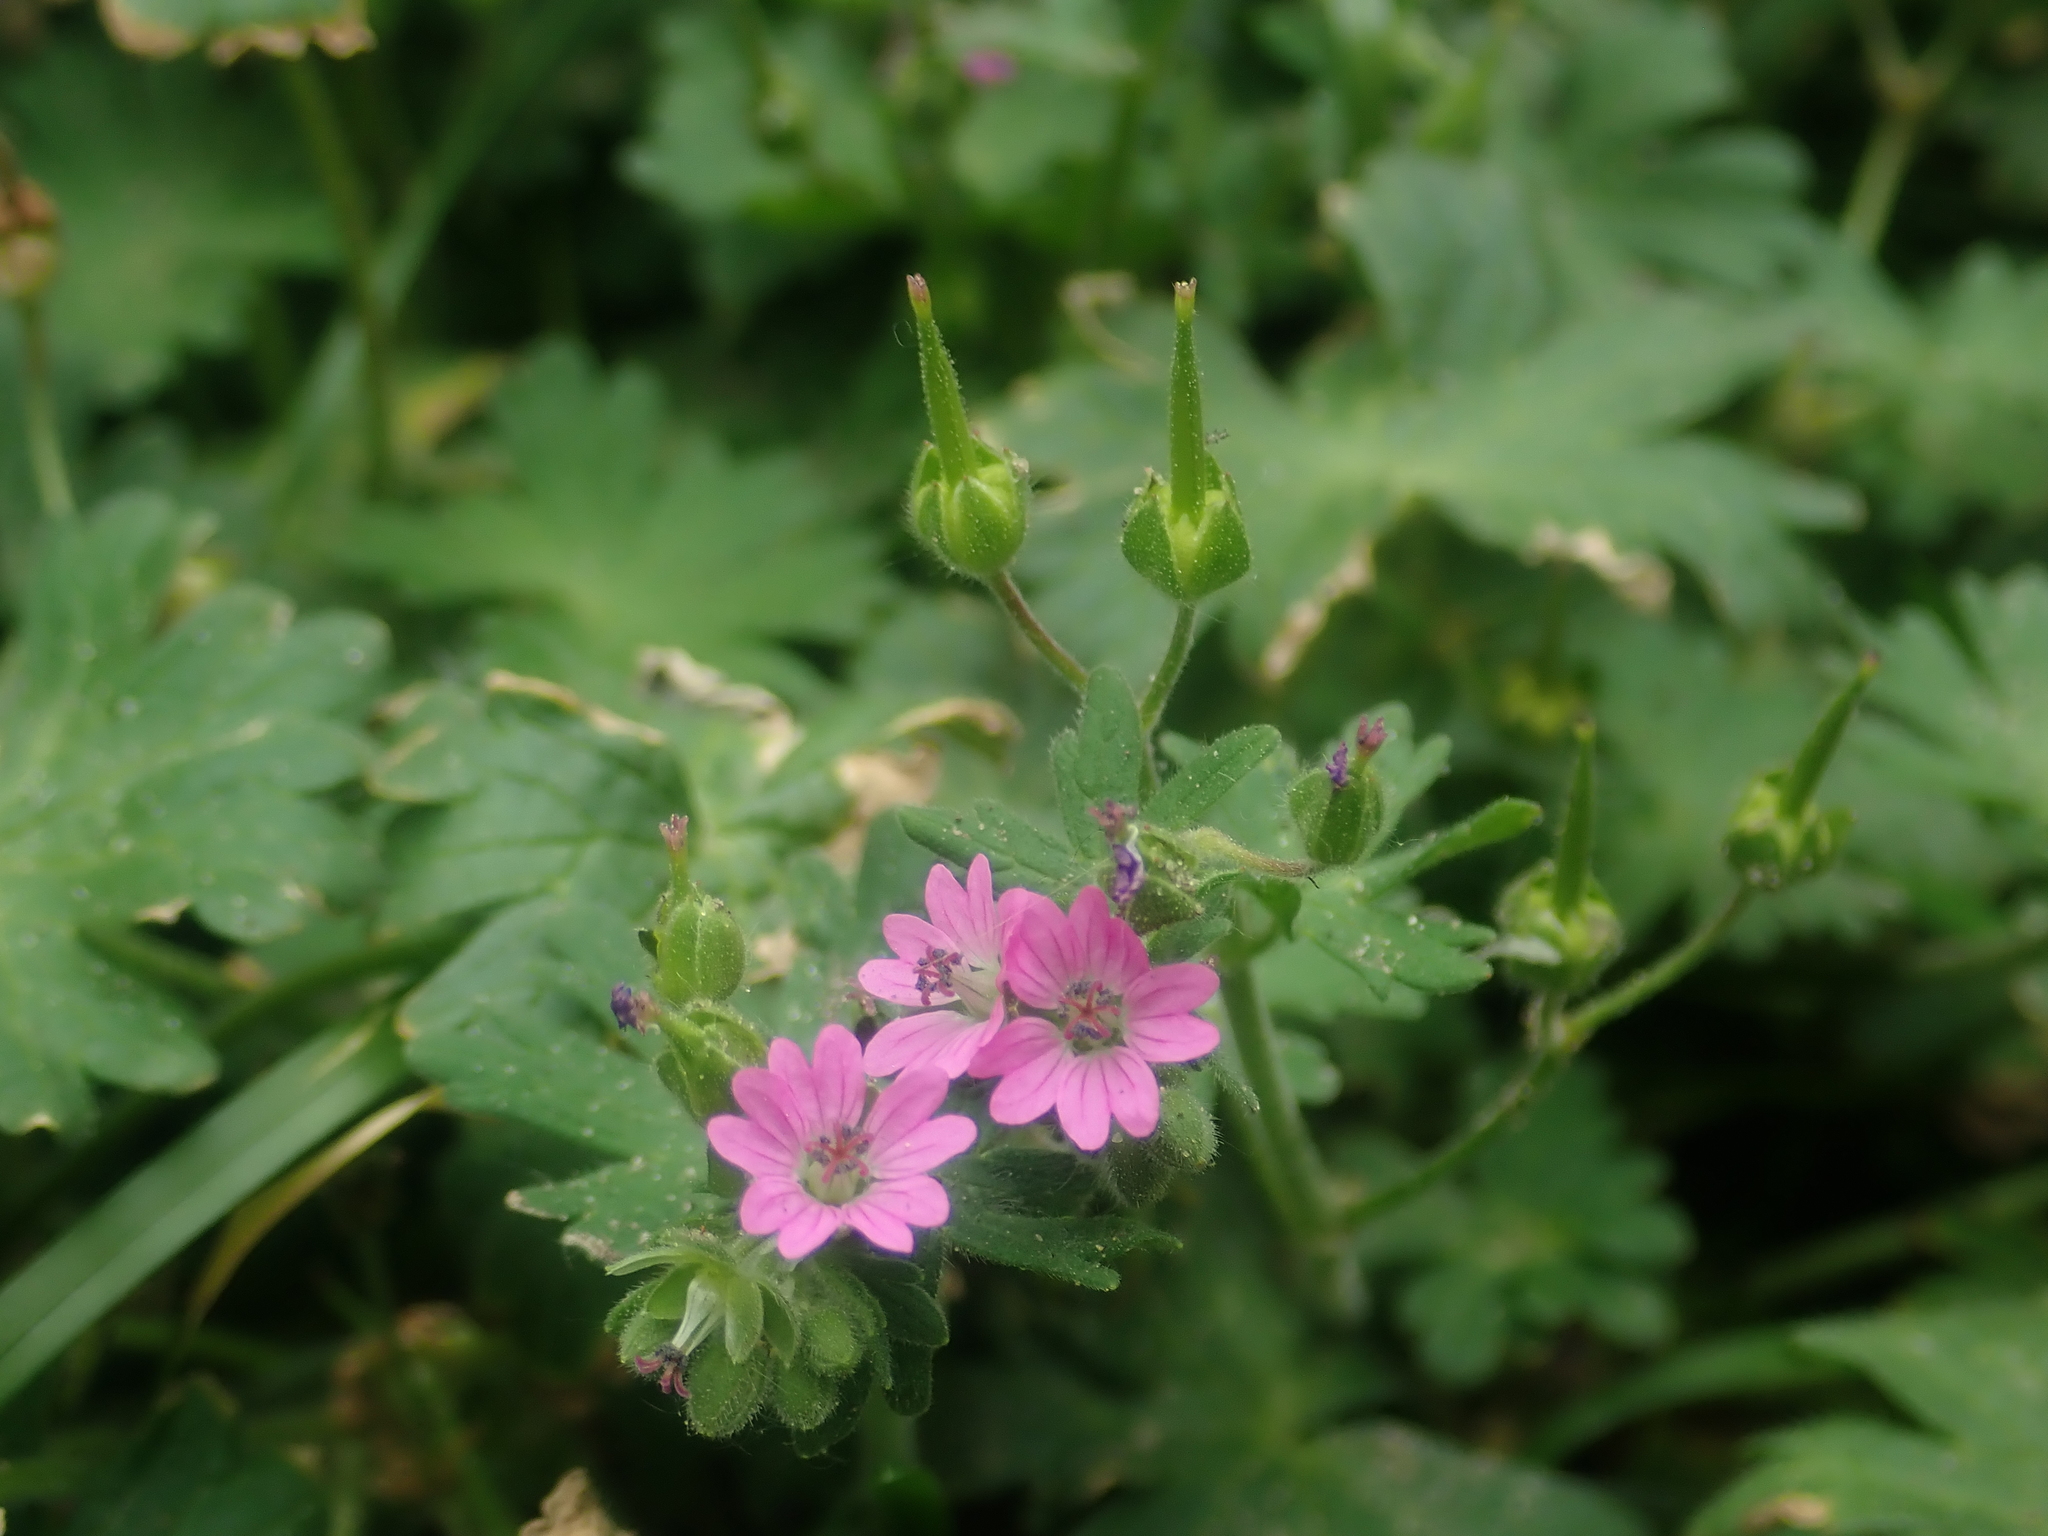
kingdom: Plantae
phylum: Tracheophyta
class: Magnoliopsida
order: Geraniales
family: Geraniaceae
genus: Geranium
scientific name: Geranium molle
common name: Dove's-foot crane's-bill
